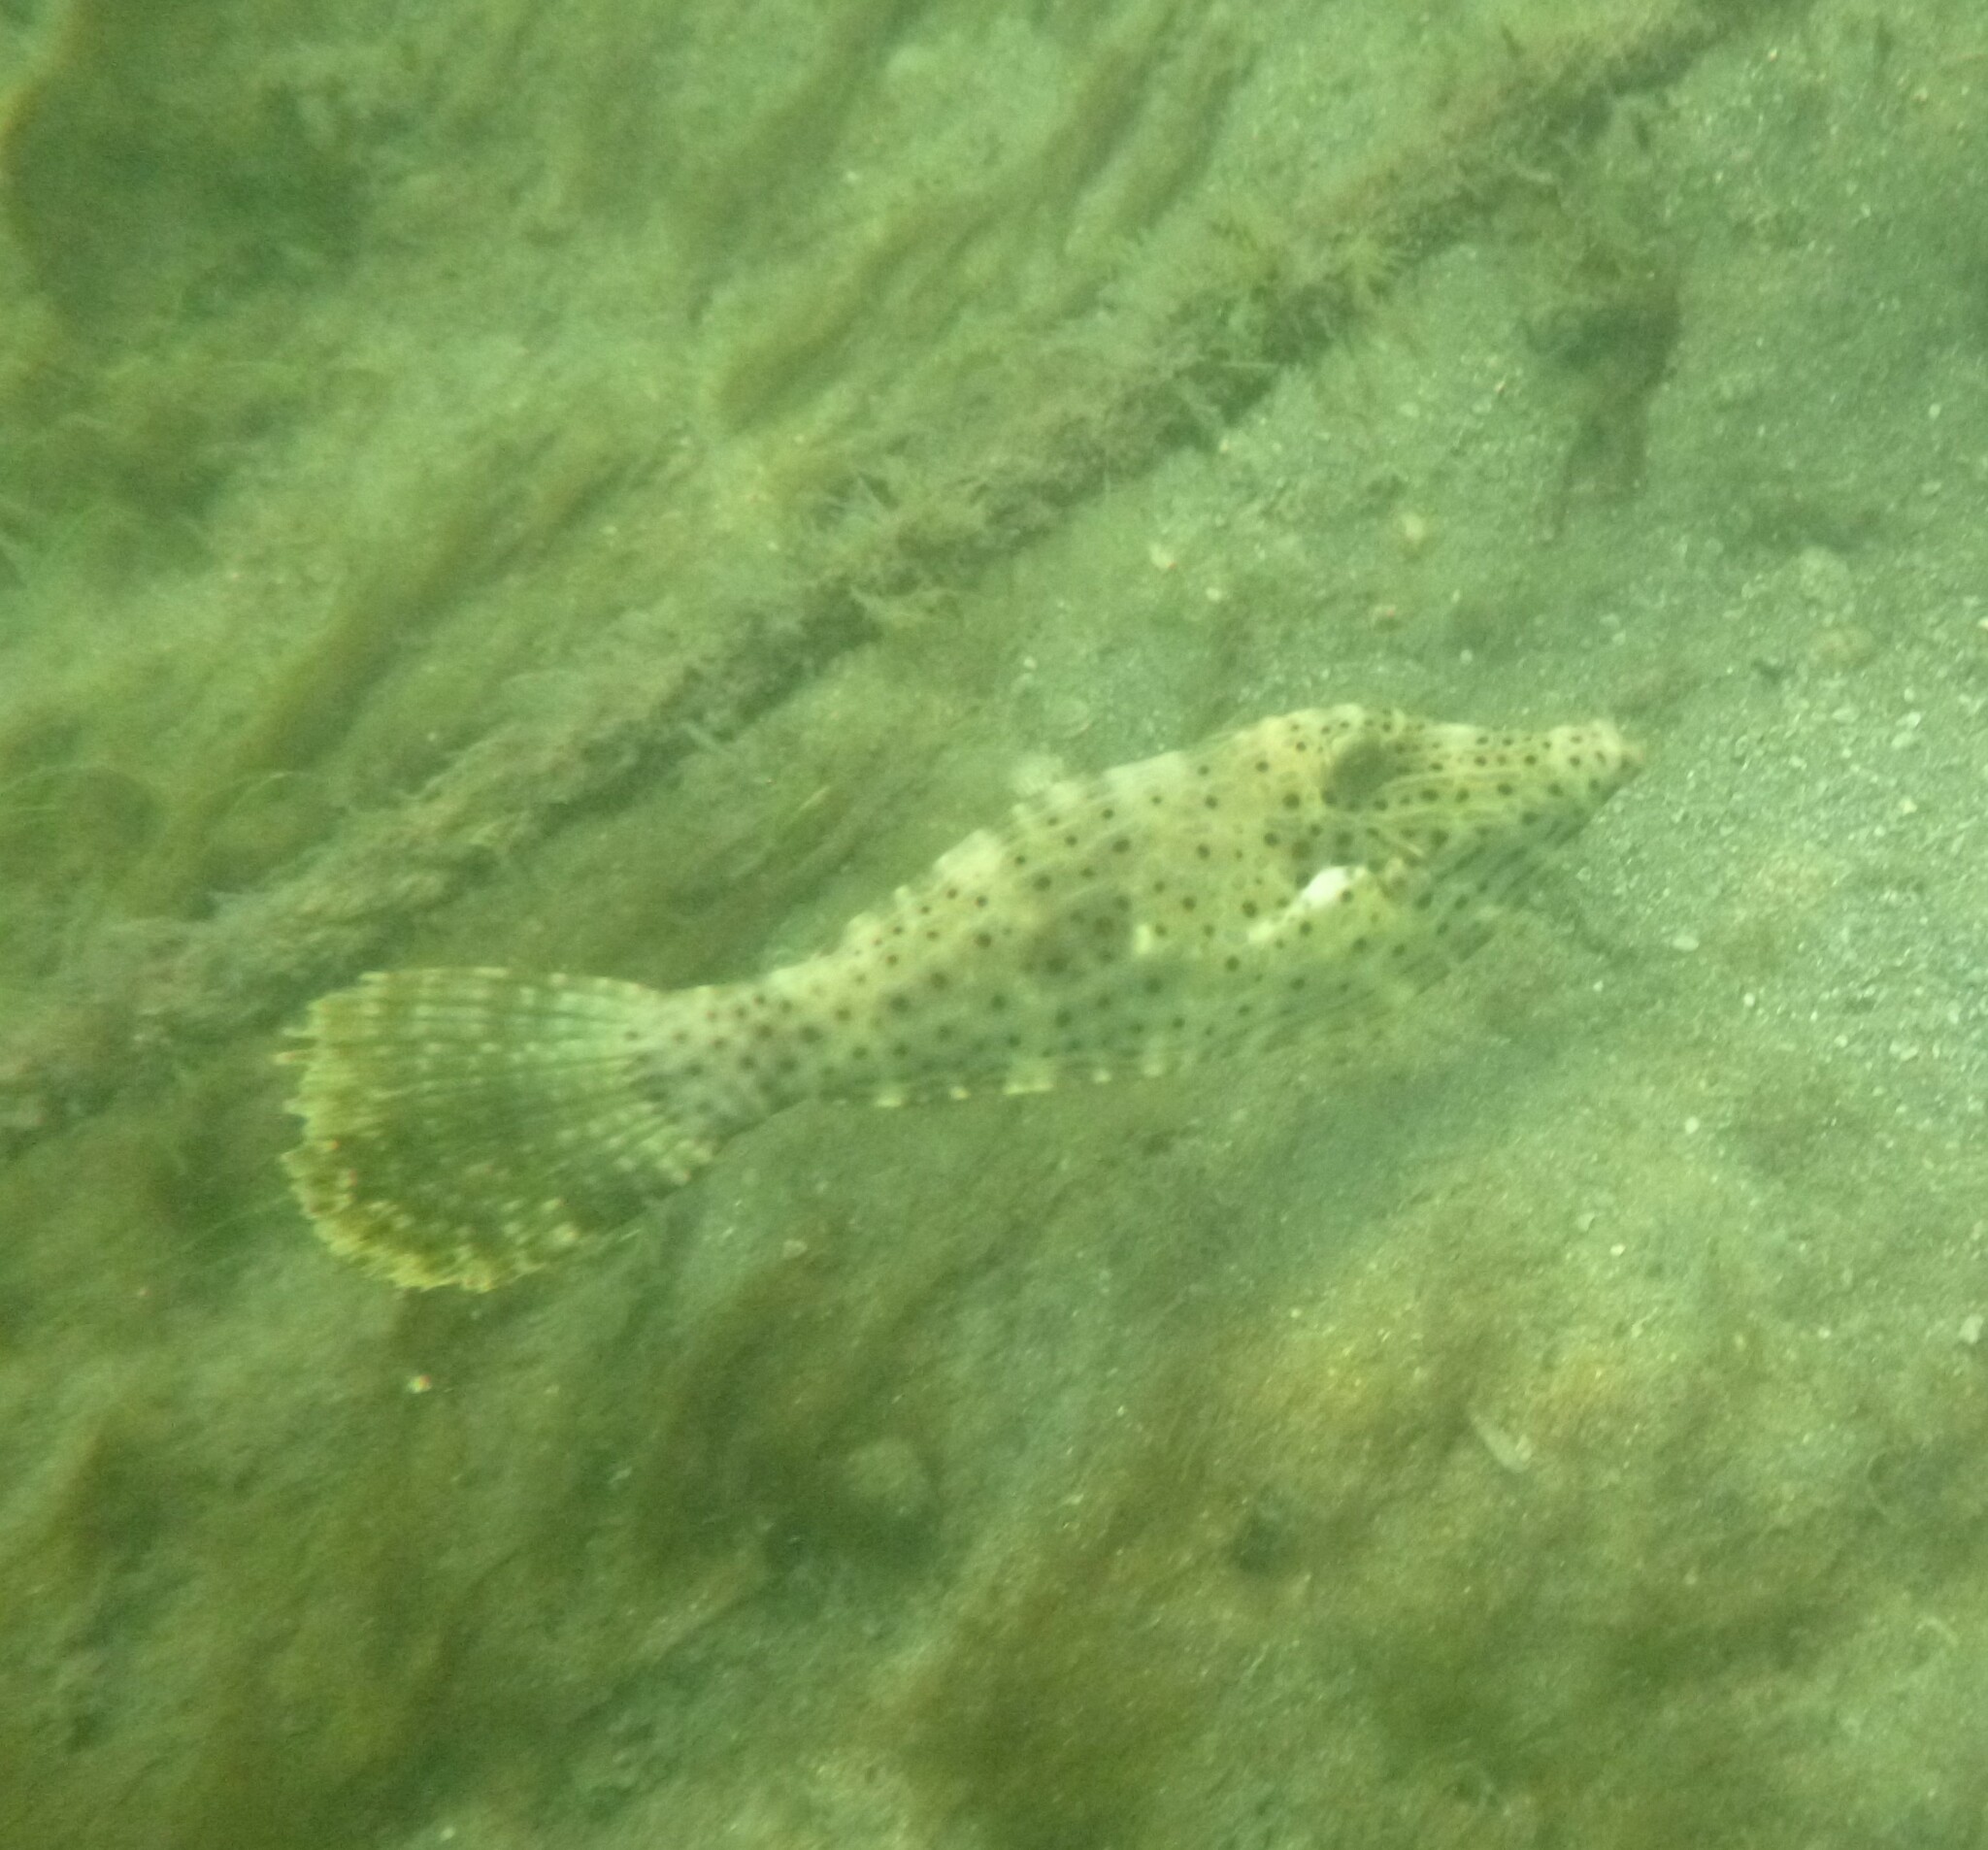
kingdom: Animalia
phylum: Chordata
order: Tetraodontiformes
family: Monacanthidae
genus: Aluterus
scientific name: Aluterus scriptus
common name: Scribbled leatherjacket filefish
